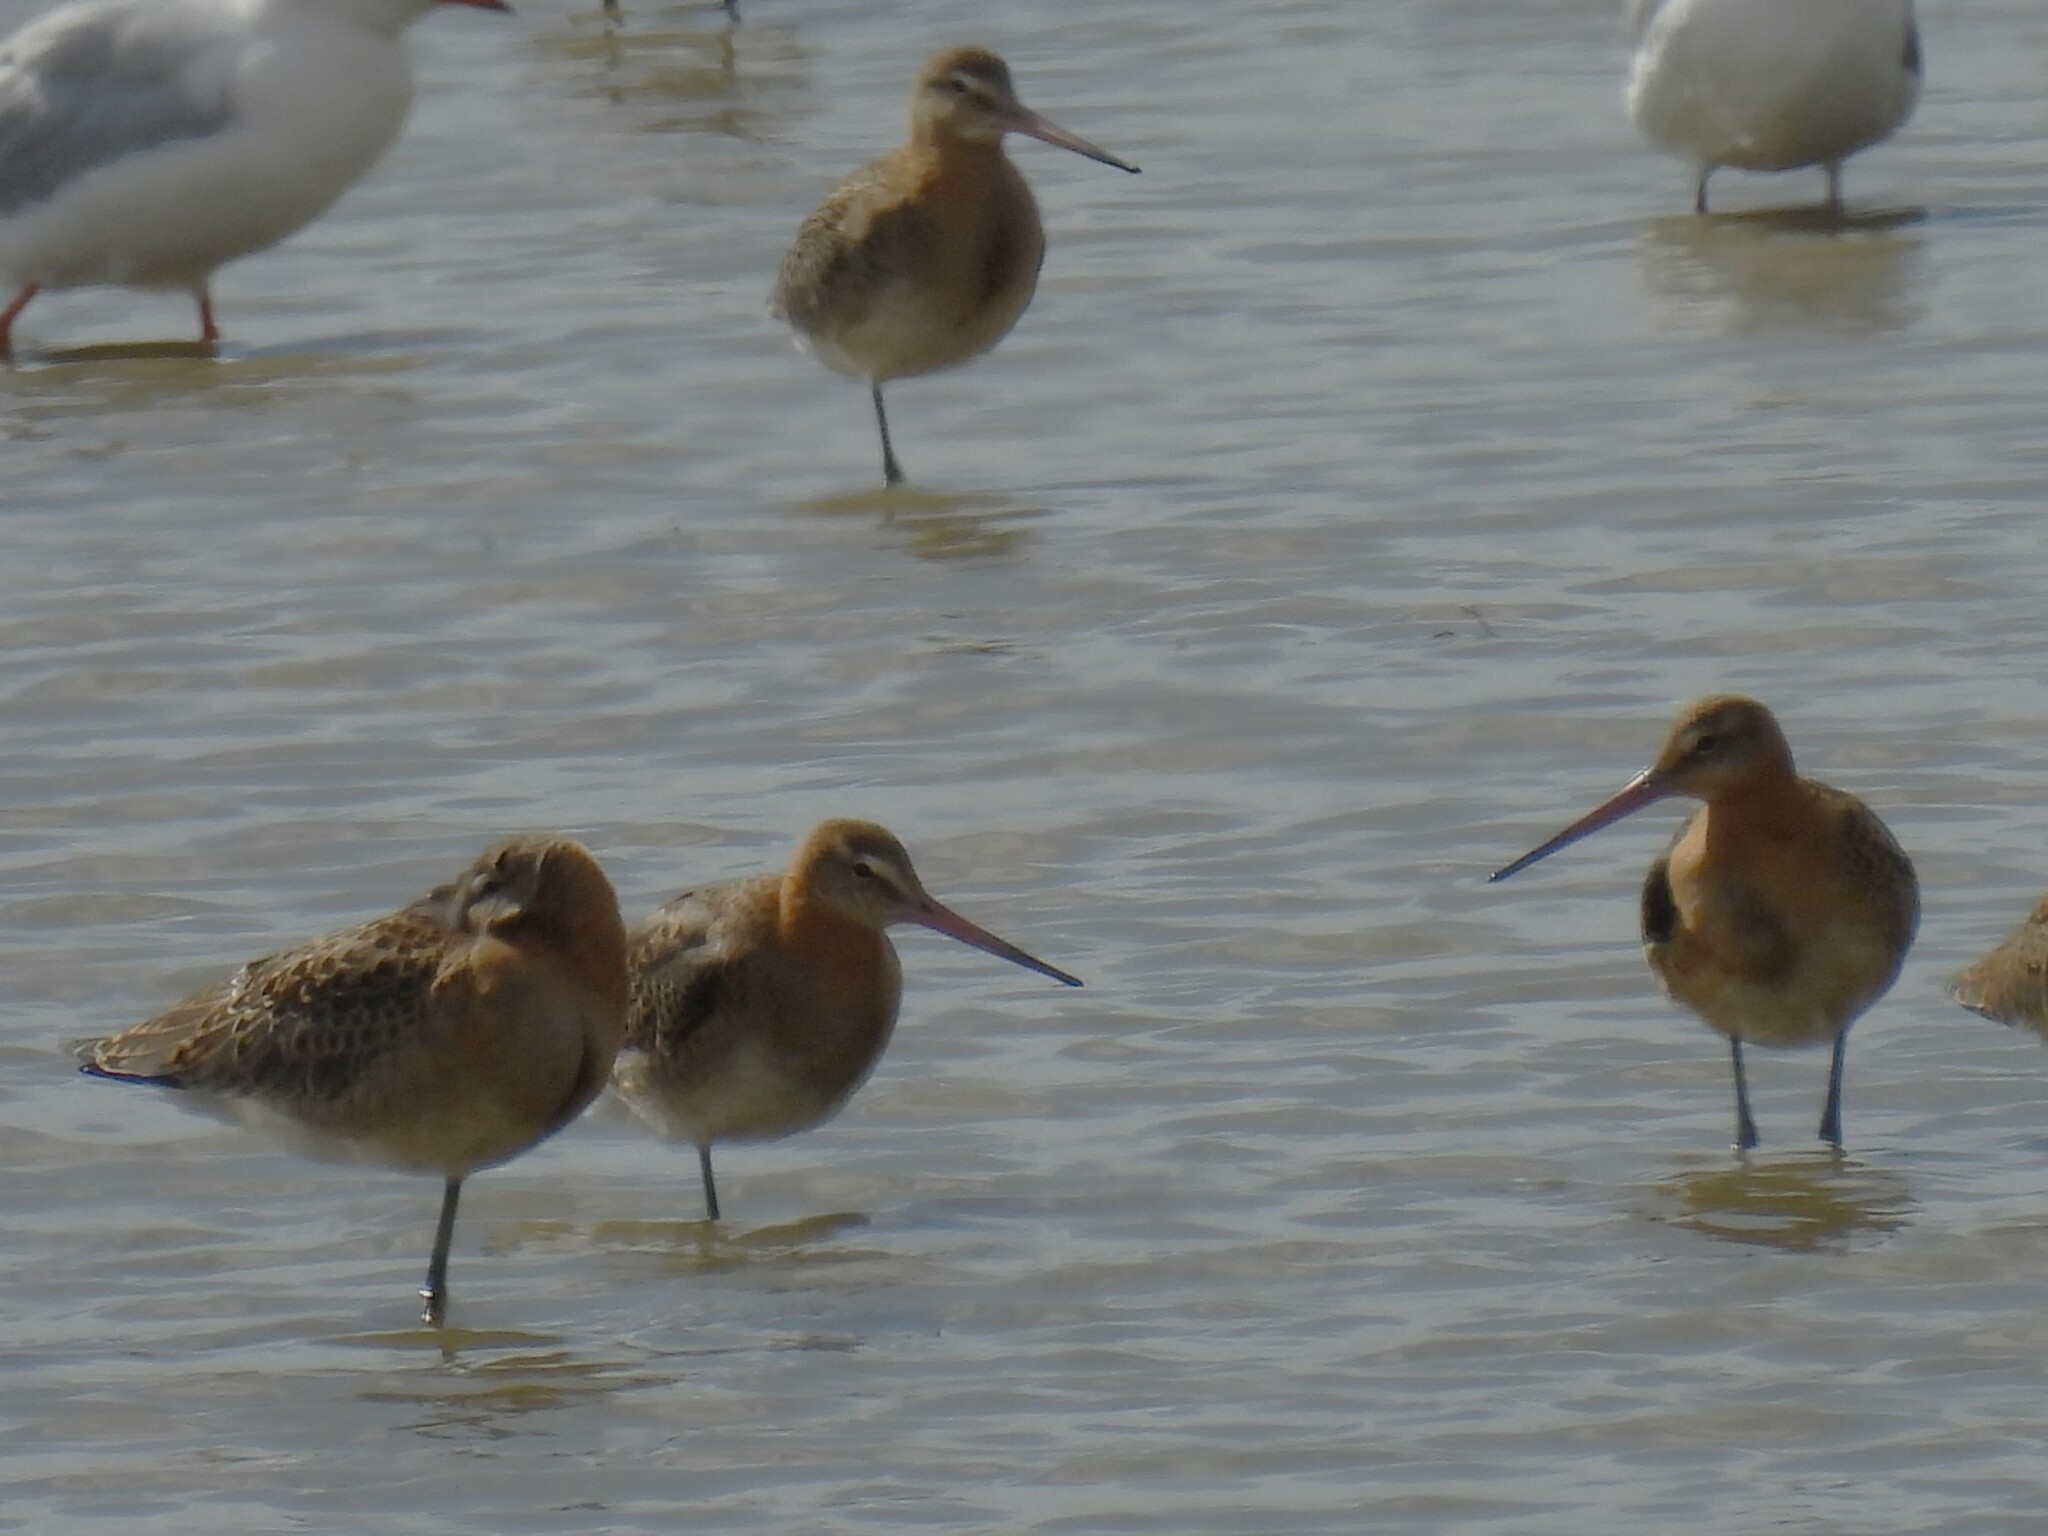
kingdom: Animalia
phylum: Chordata
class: Aves
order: Charadriiformes
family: Scolopacidae
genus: Limosa
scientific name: Limosa limosa
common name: Black-tailed godwit
